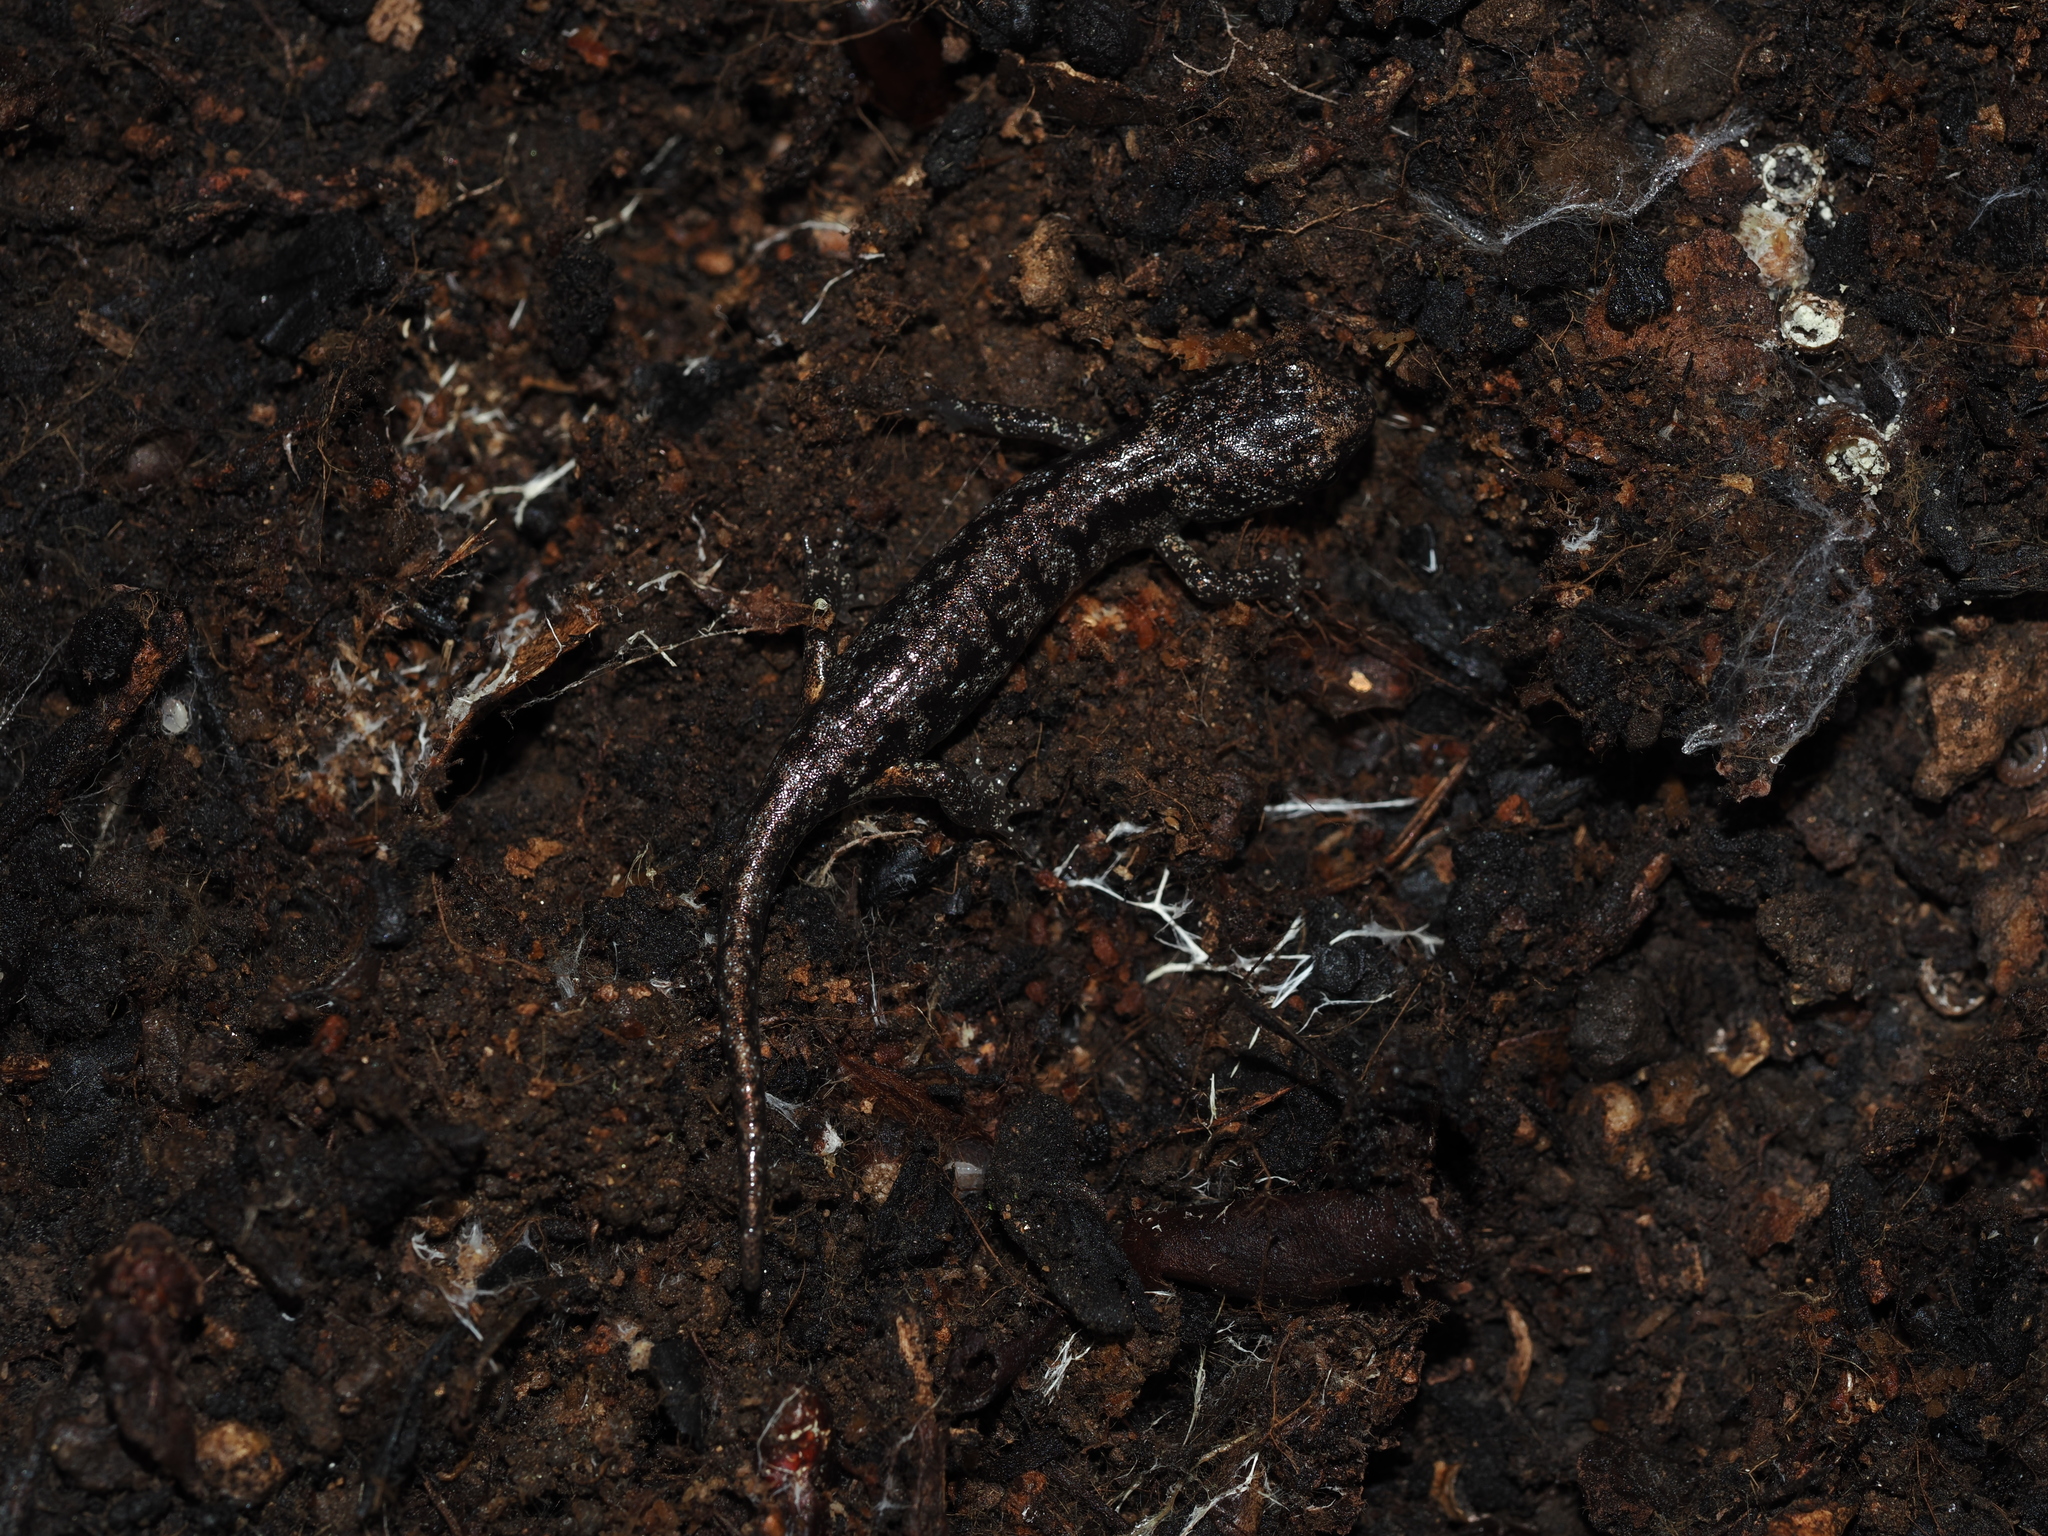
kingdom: Animalia
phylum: Chordata
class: Amphibia
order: Caudata
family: Plethodontidae
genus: Aneides
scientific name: Aneides lugubris
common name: Arboreal salamander
